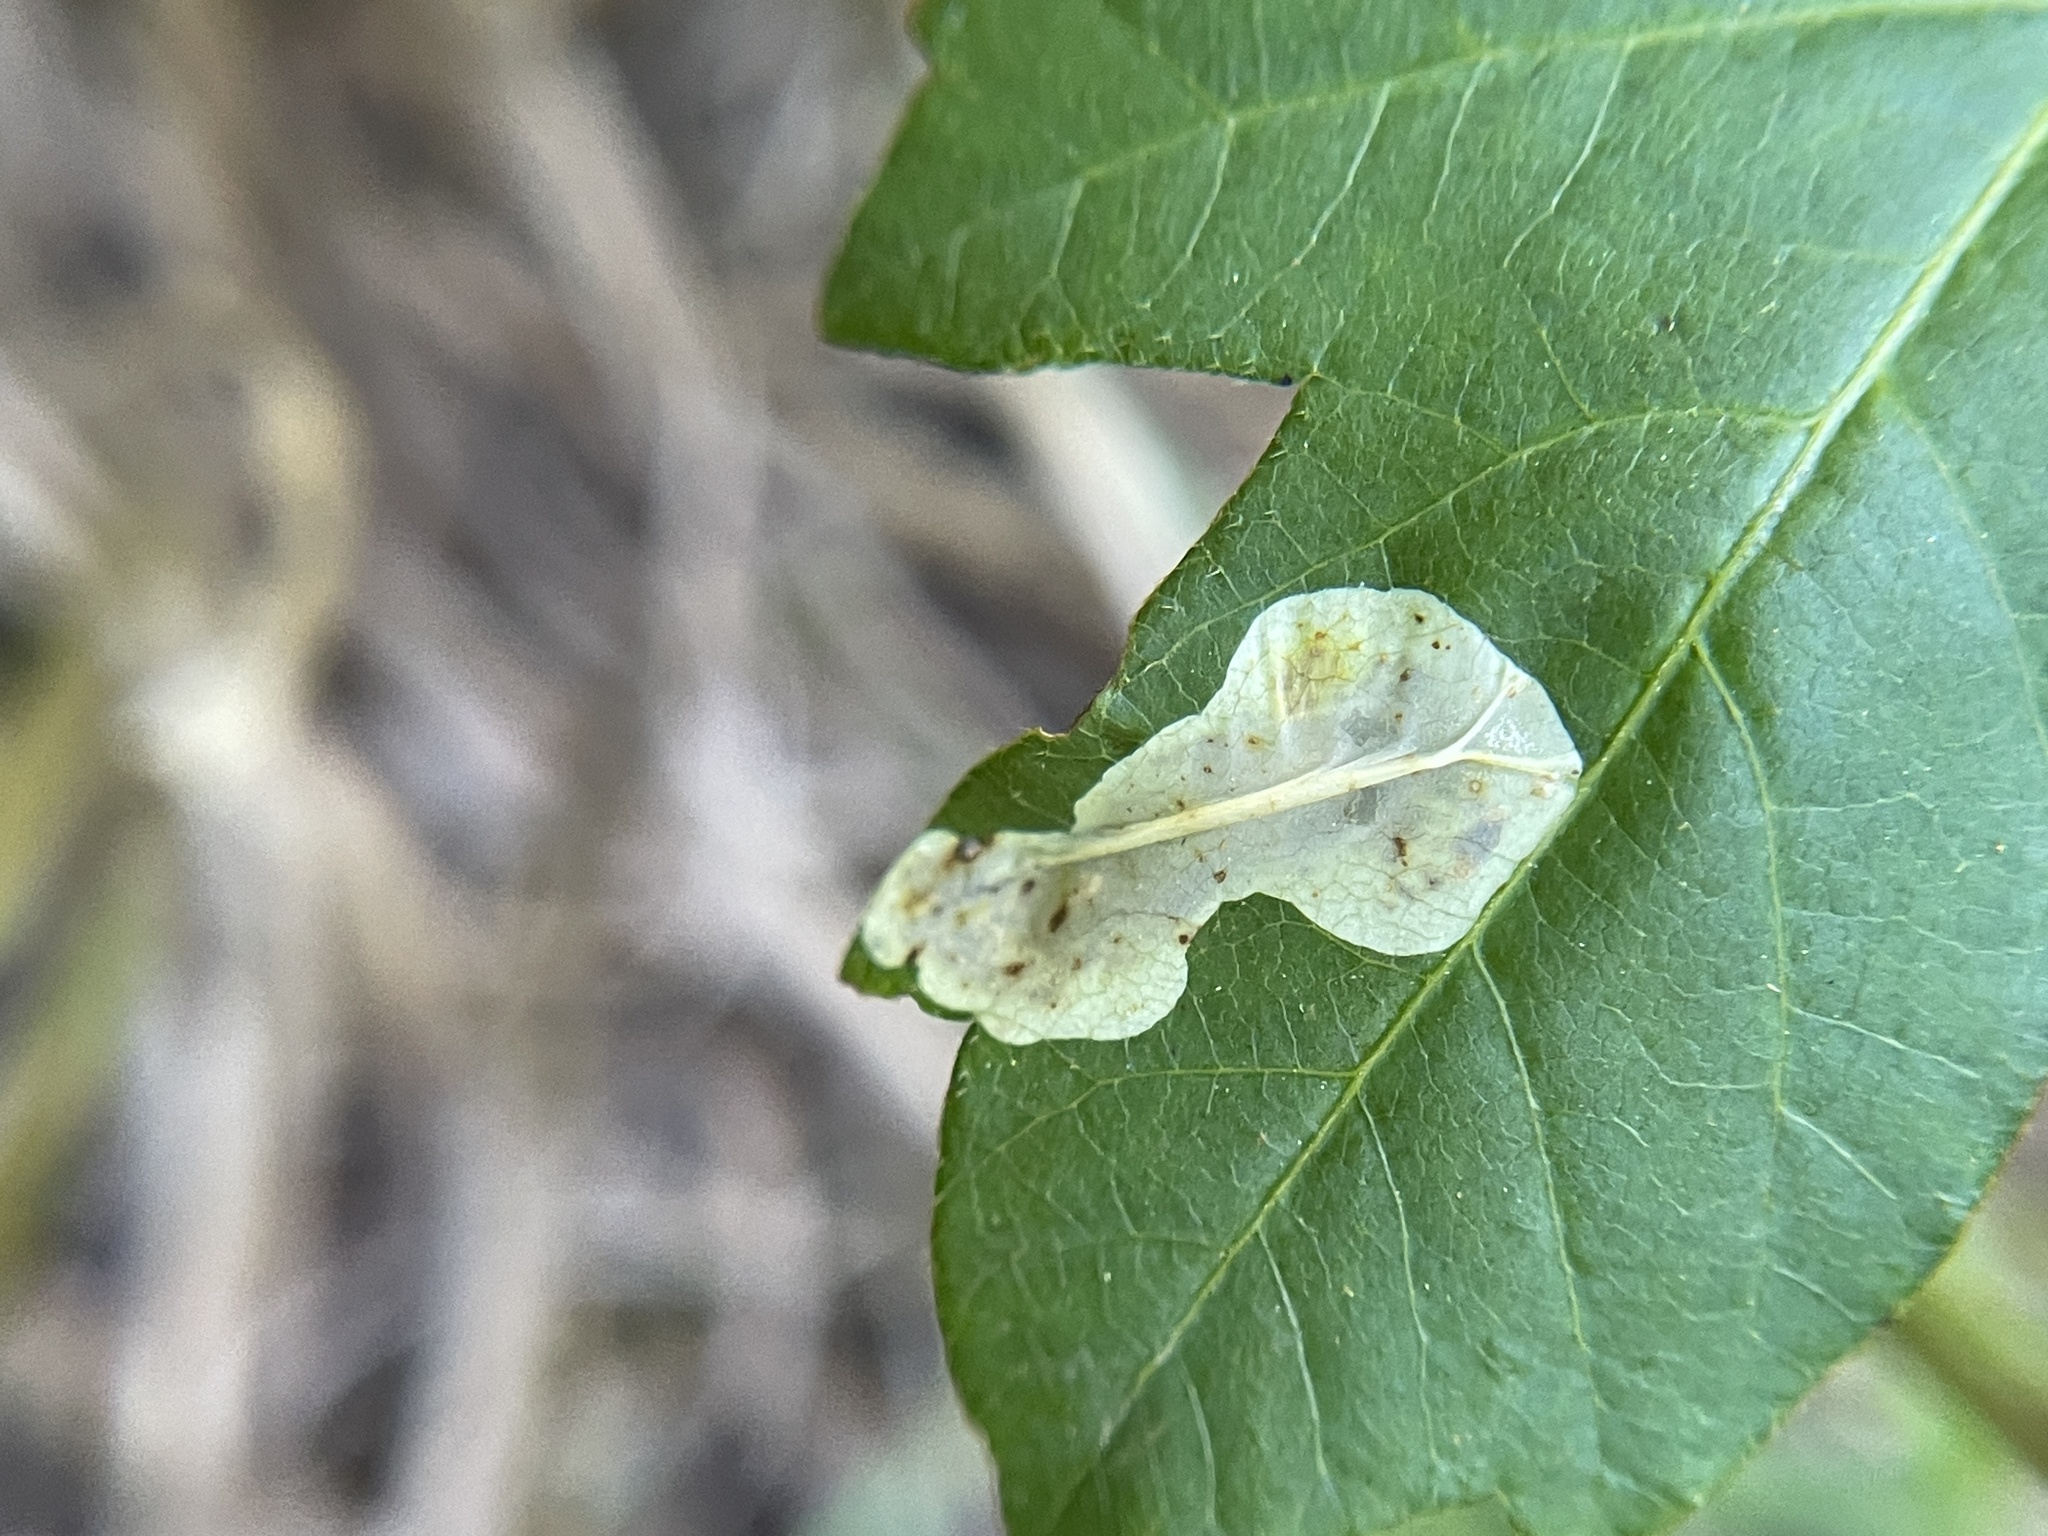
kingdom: Animalia
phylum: Arthropoda
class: Insecta
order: Lepidoptera
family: Gracillariidae
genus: Cameraria
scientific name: Cameraria guttifinitella
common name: Poison ivy leaf-miner moth
